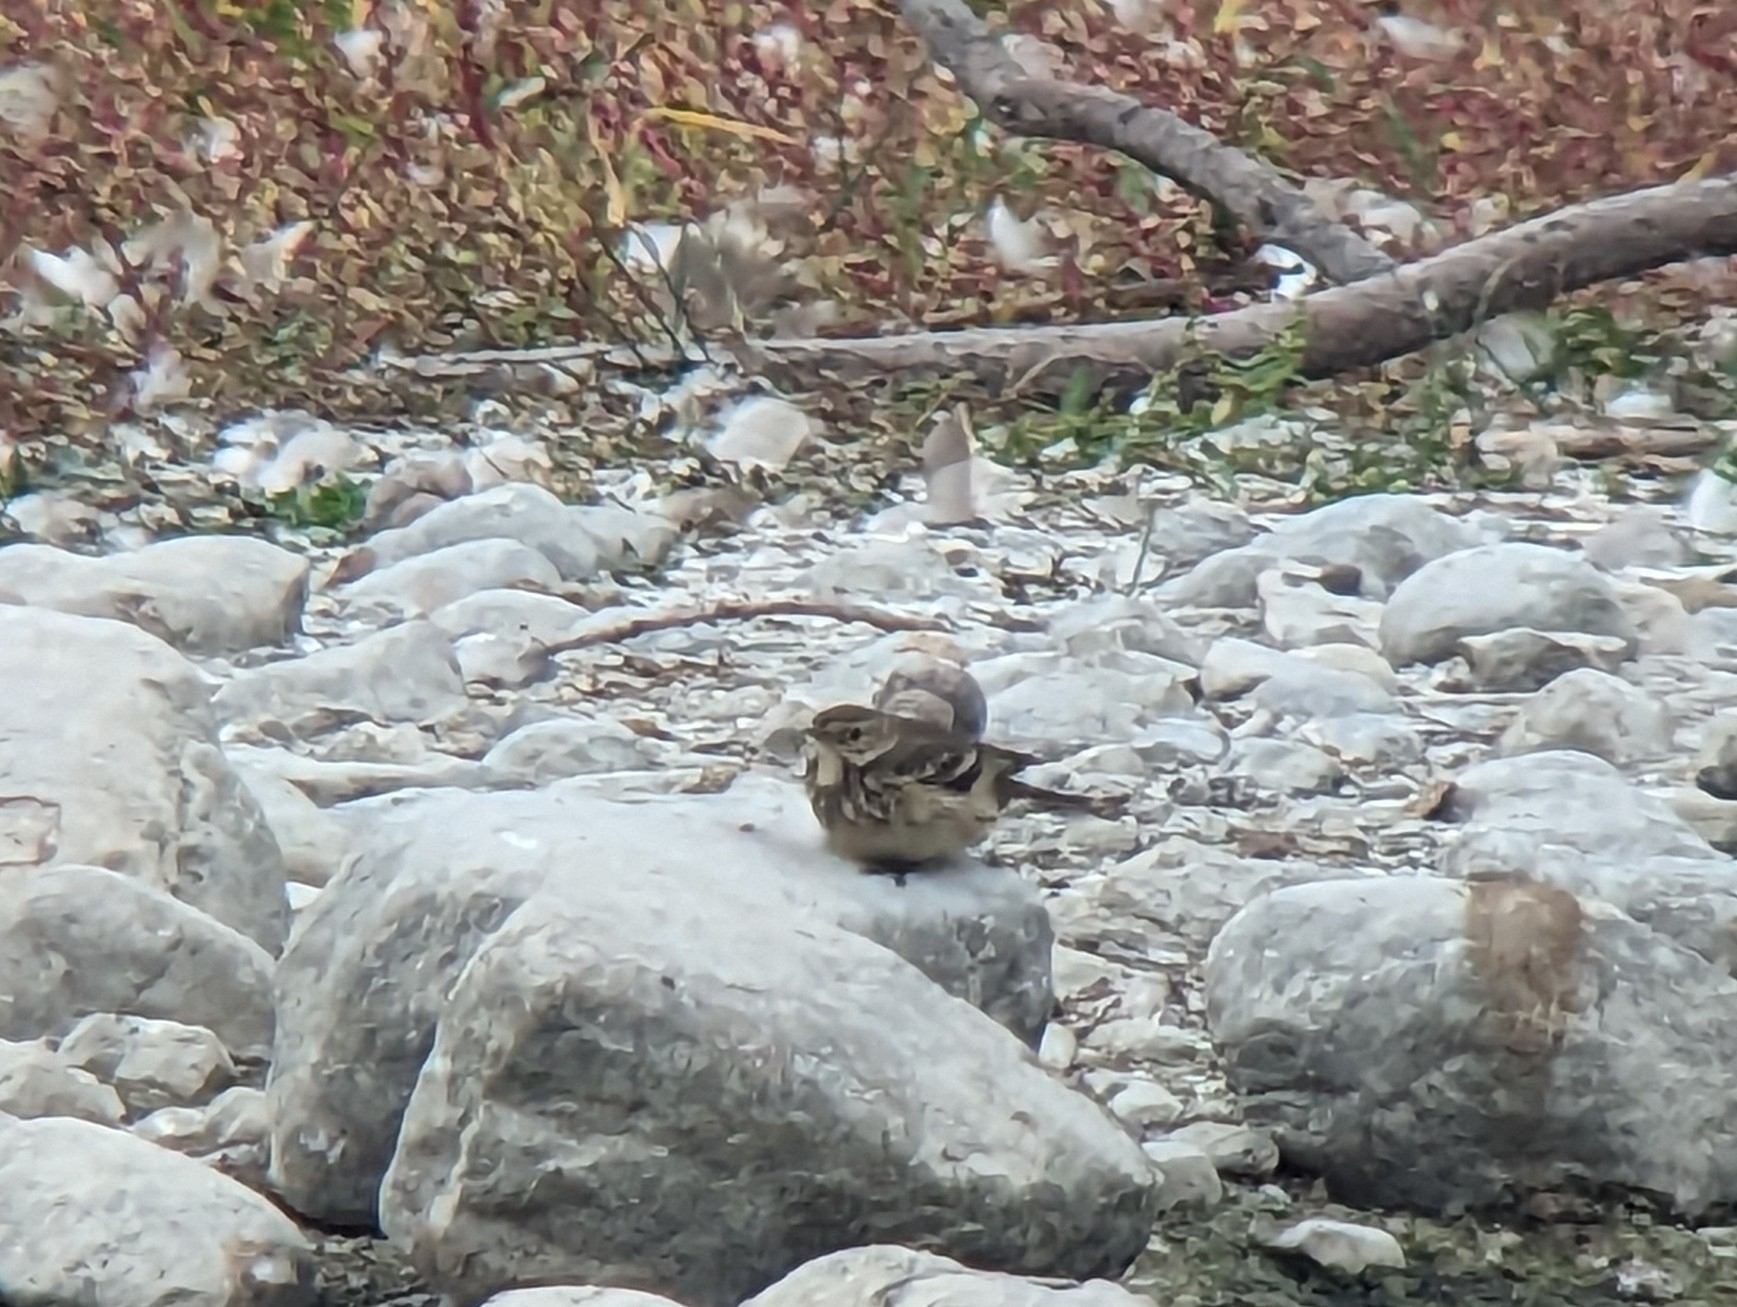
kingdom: Animalia
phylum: Chordata
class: Aves
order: Passeriformes
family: Motacillidae
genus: Anthus
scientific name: Anthus rubescens
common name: Buff-bellied pipit
